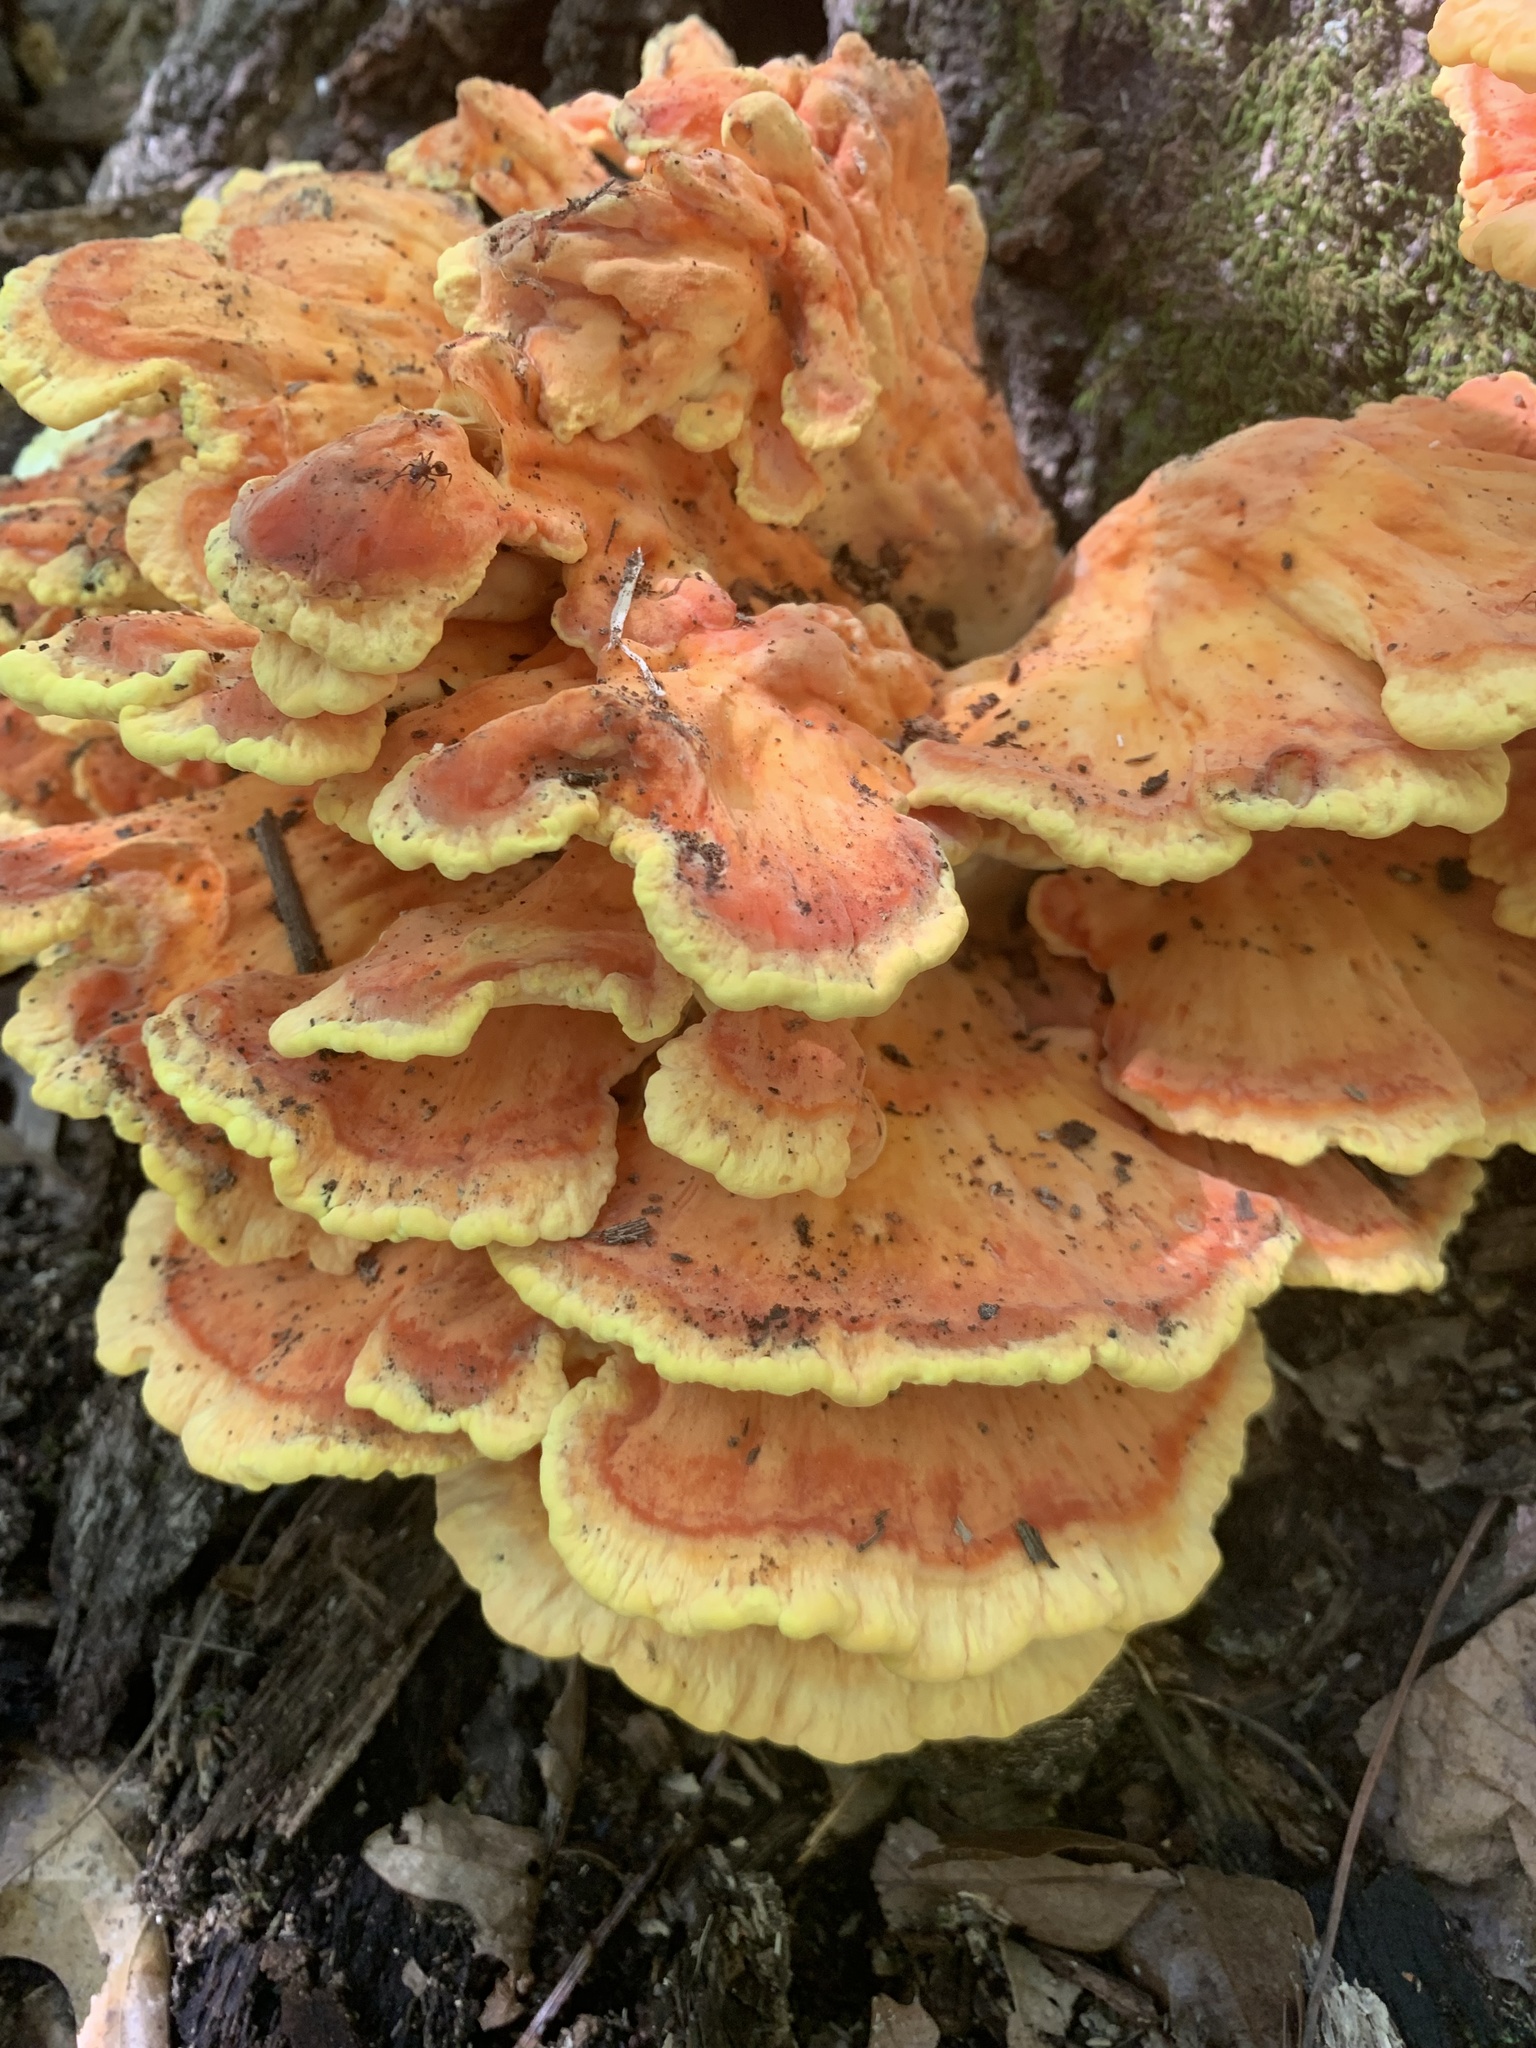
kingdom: Fungi
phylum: Basidiomycota
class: Agaricomycetes
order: Polyporales
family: Laetiporaceae
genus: Laetiporus
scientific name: Laetiporus sulphureus
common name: Chicken of the woods
